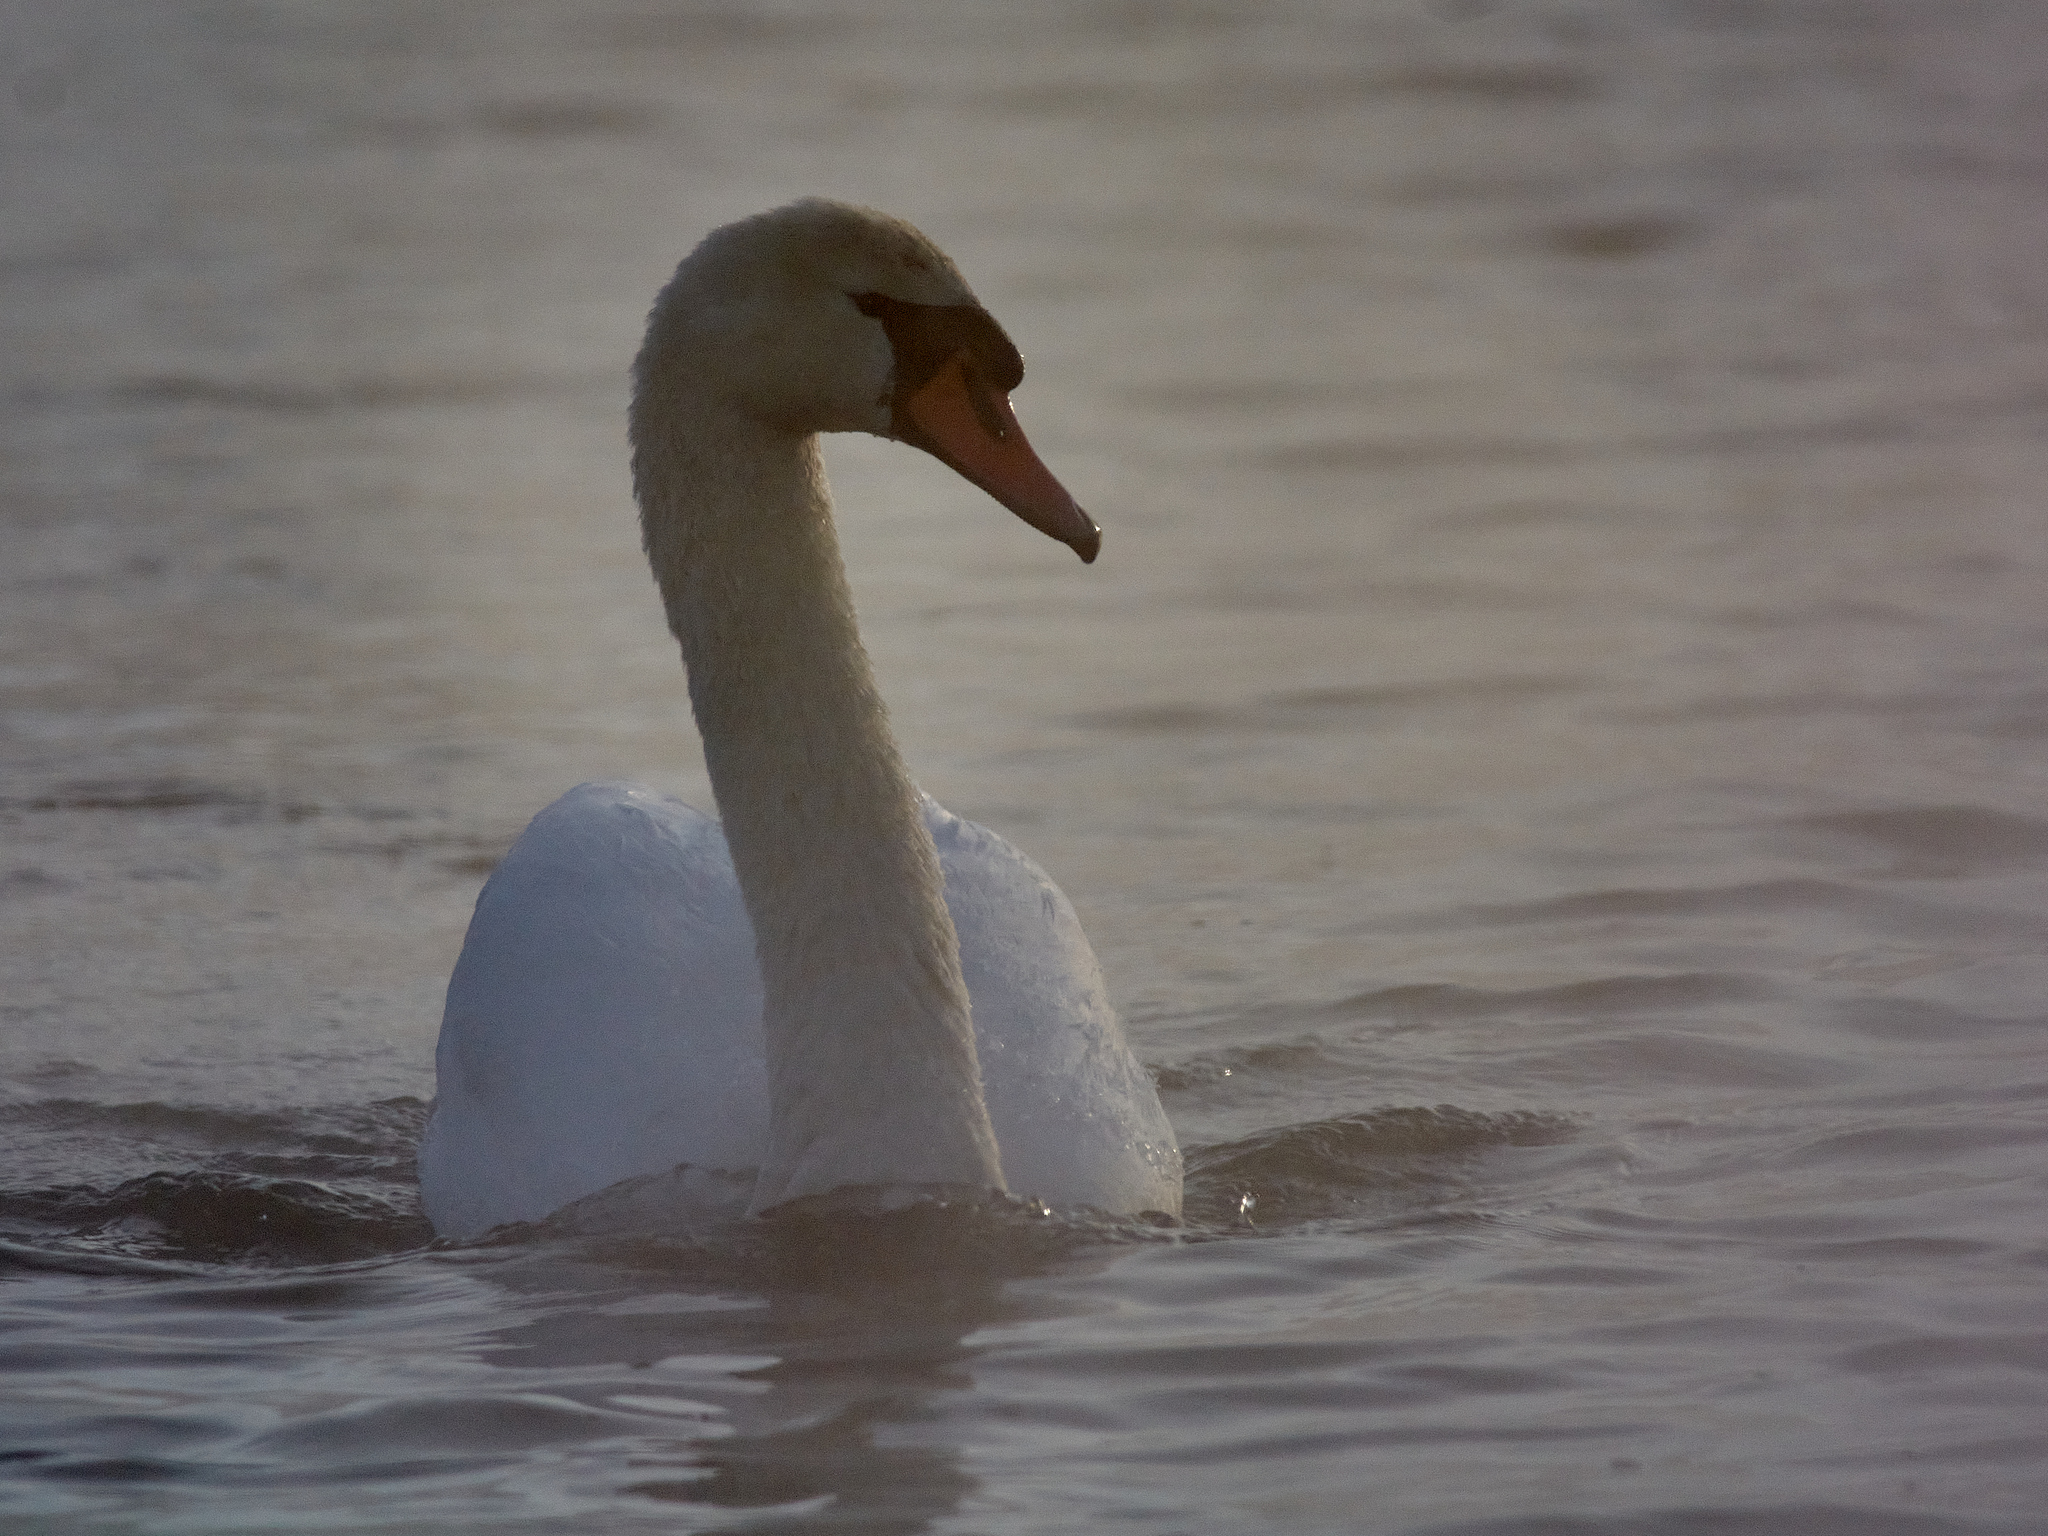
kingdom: Animalia
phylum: Chordata
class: Aves
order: Anseriformes
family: Anatidae
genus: Cygnus
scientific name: Cygnus olor
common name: Mute swan
